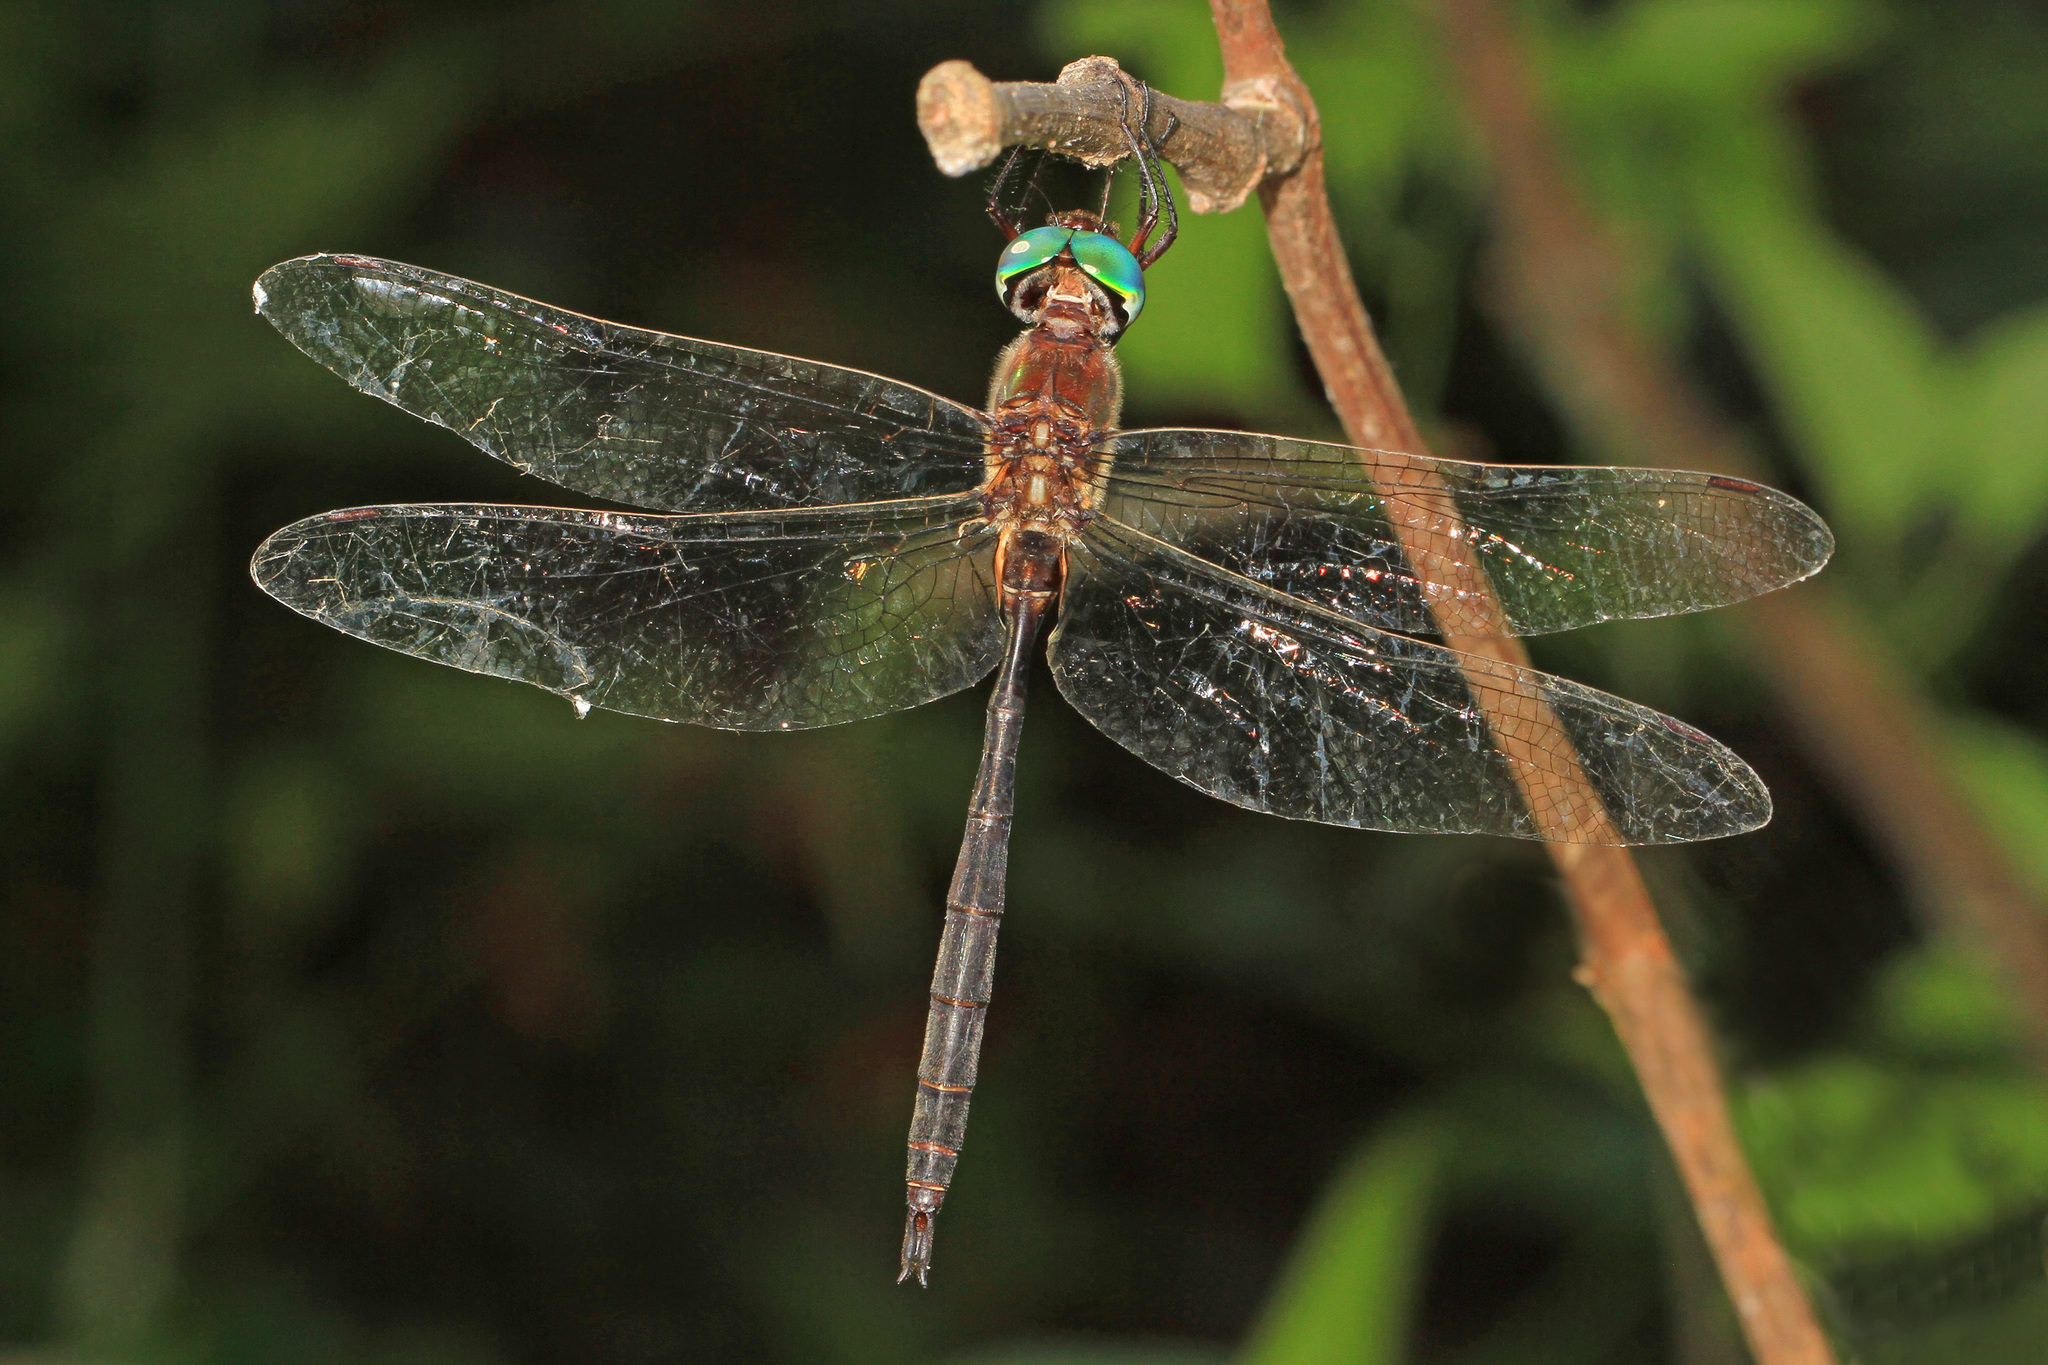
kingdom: Animalia
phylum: Arthropoda
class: Insecta
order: Odonata
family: Corduliidae
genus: Somatochlora
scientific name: Somatochlora filosa
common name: Fine-lined emerald
